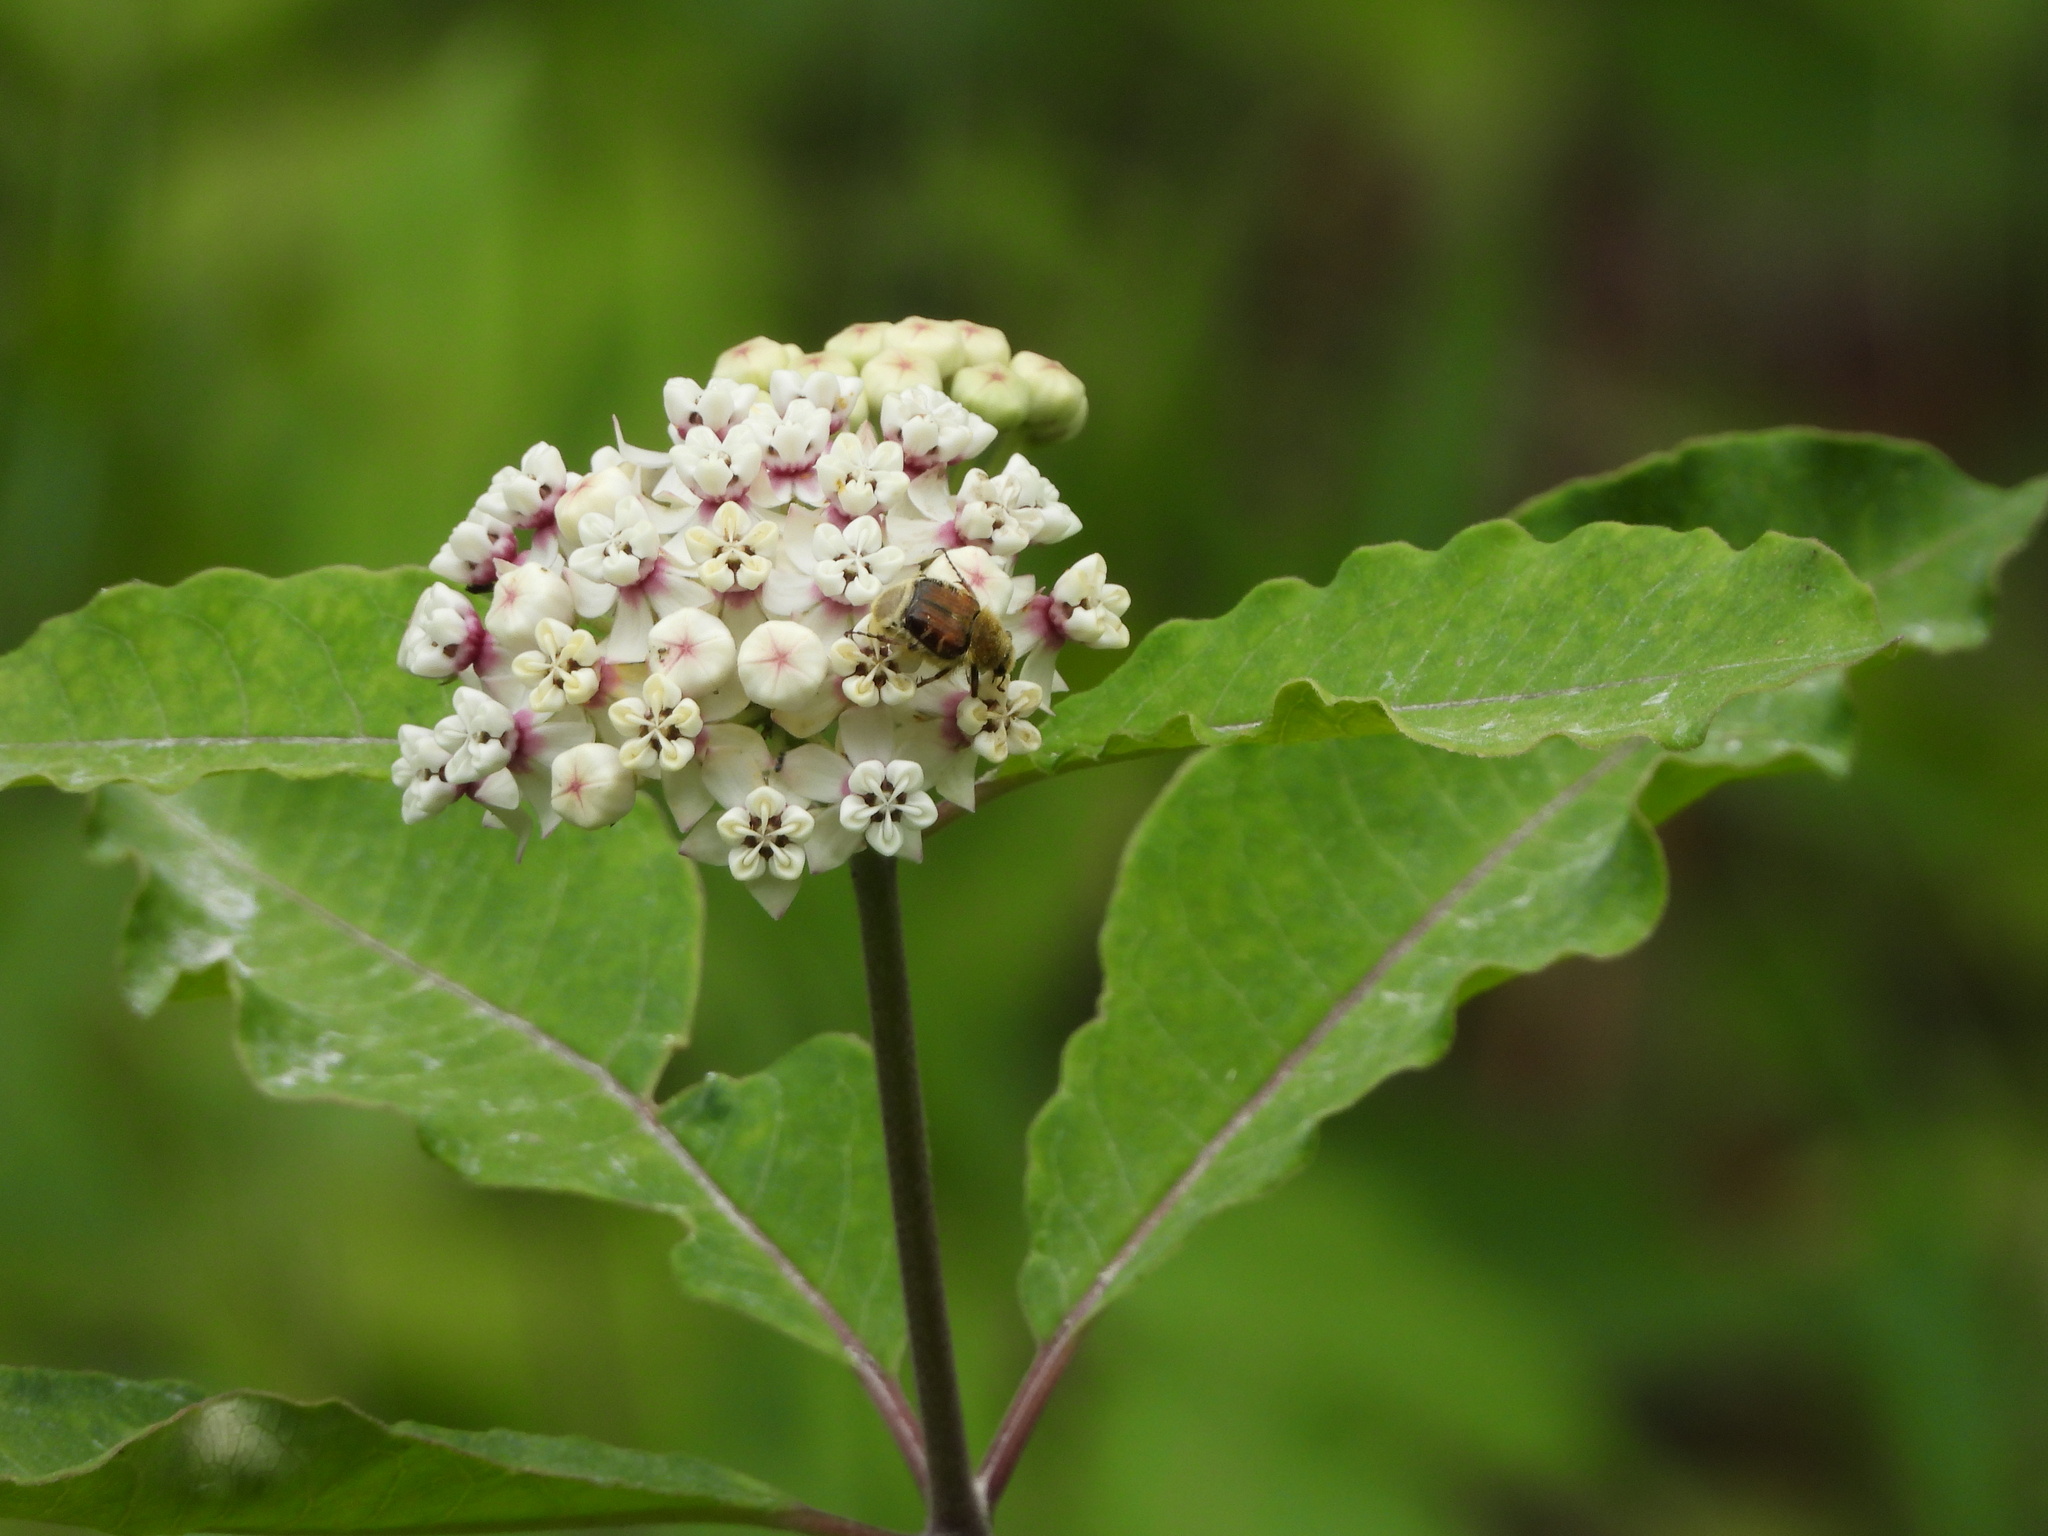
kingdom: Animalia
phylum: Arthropoda
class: Insecta
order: Coleoptera
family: Scarabaeidae
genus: Trichiotinus
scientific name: Trichiotinus piger
